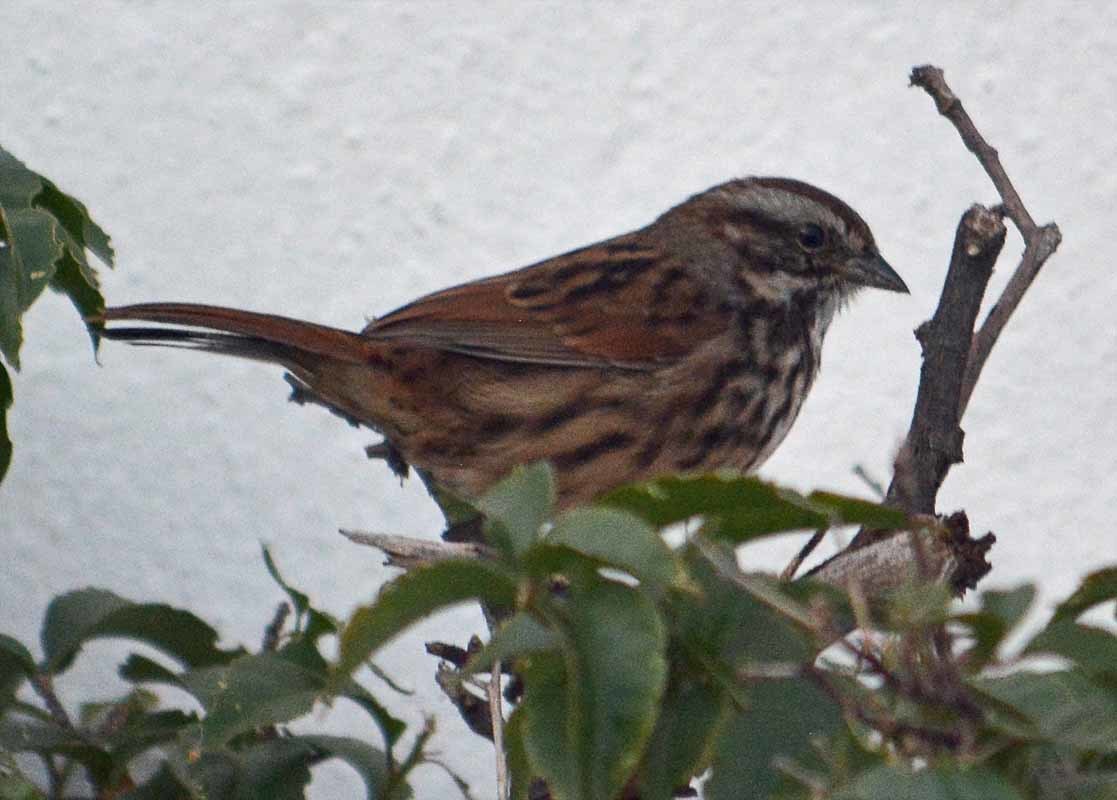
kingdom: Animalia
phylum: Chordata
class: Aves
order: Passeriformes
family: Passerellidae
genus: Melospiza
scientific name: Melospiza melodia
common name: Song sparrow
